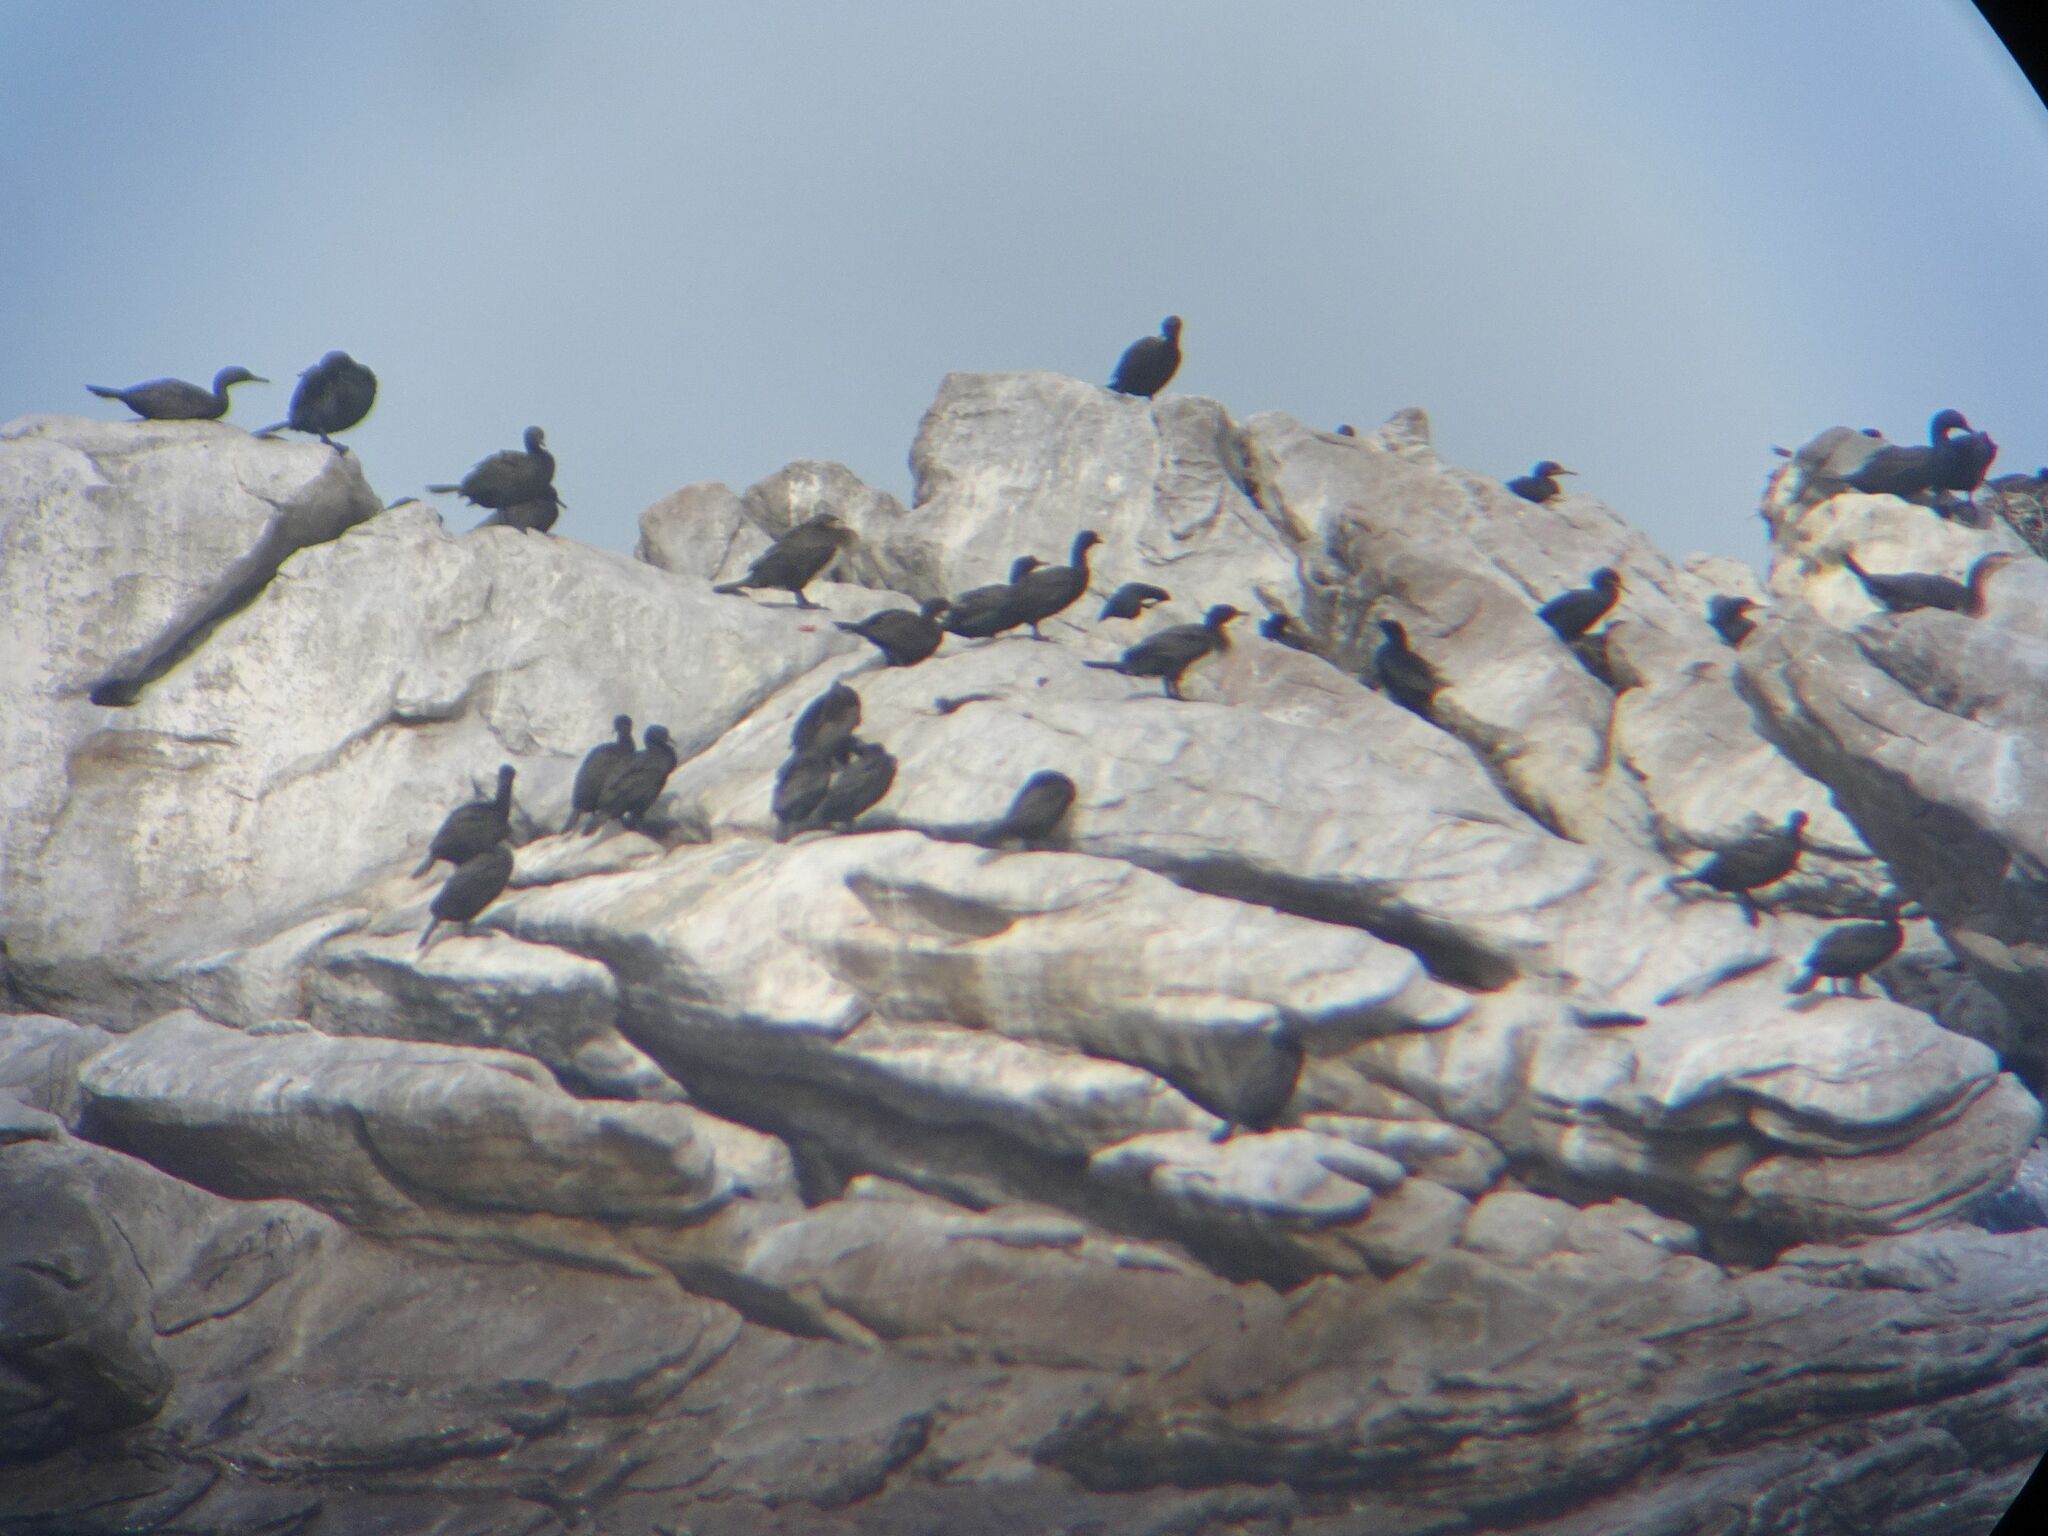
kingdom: Animalia
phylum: Chordata
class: Aves
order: Suliformes
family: Phalacrocoracidae
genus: Phalacrocorax
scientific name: Phalacrocorax neglectus
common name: Bank cormorant
